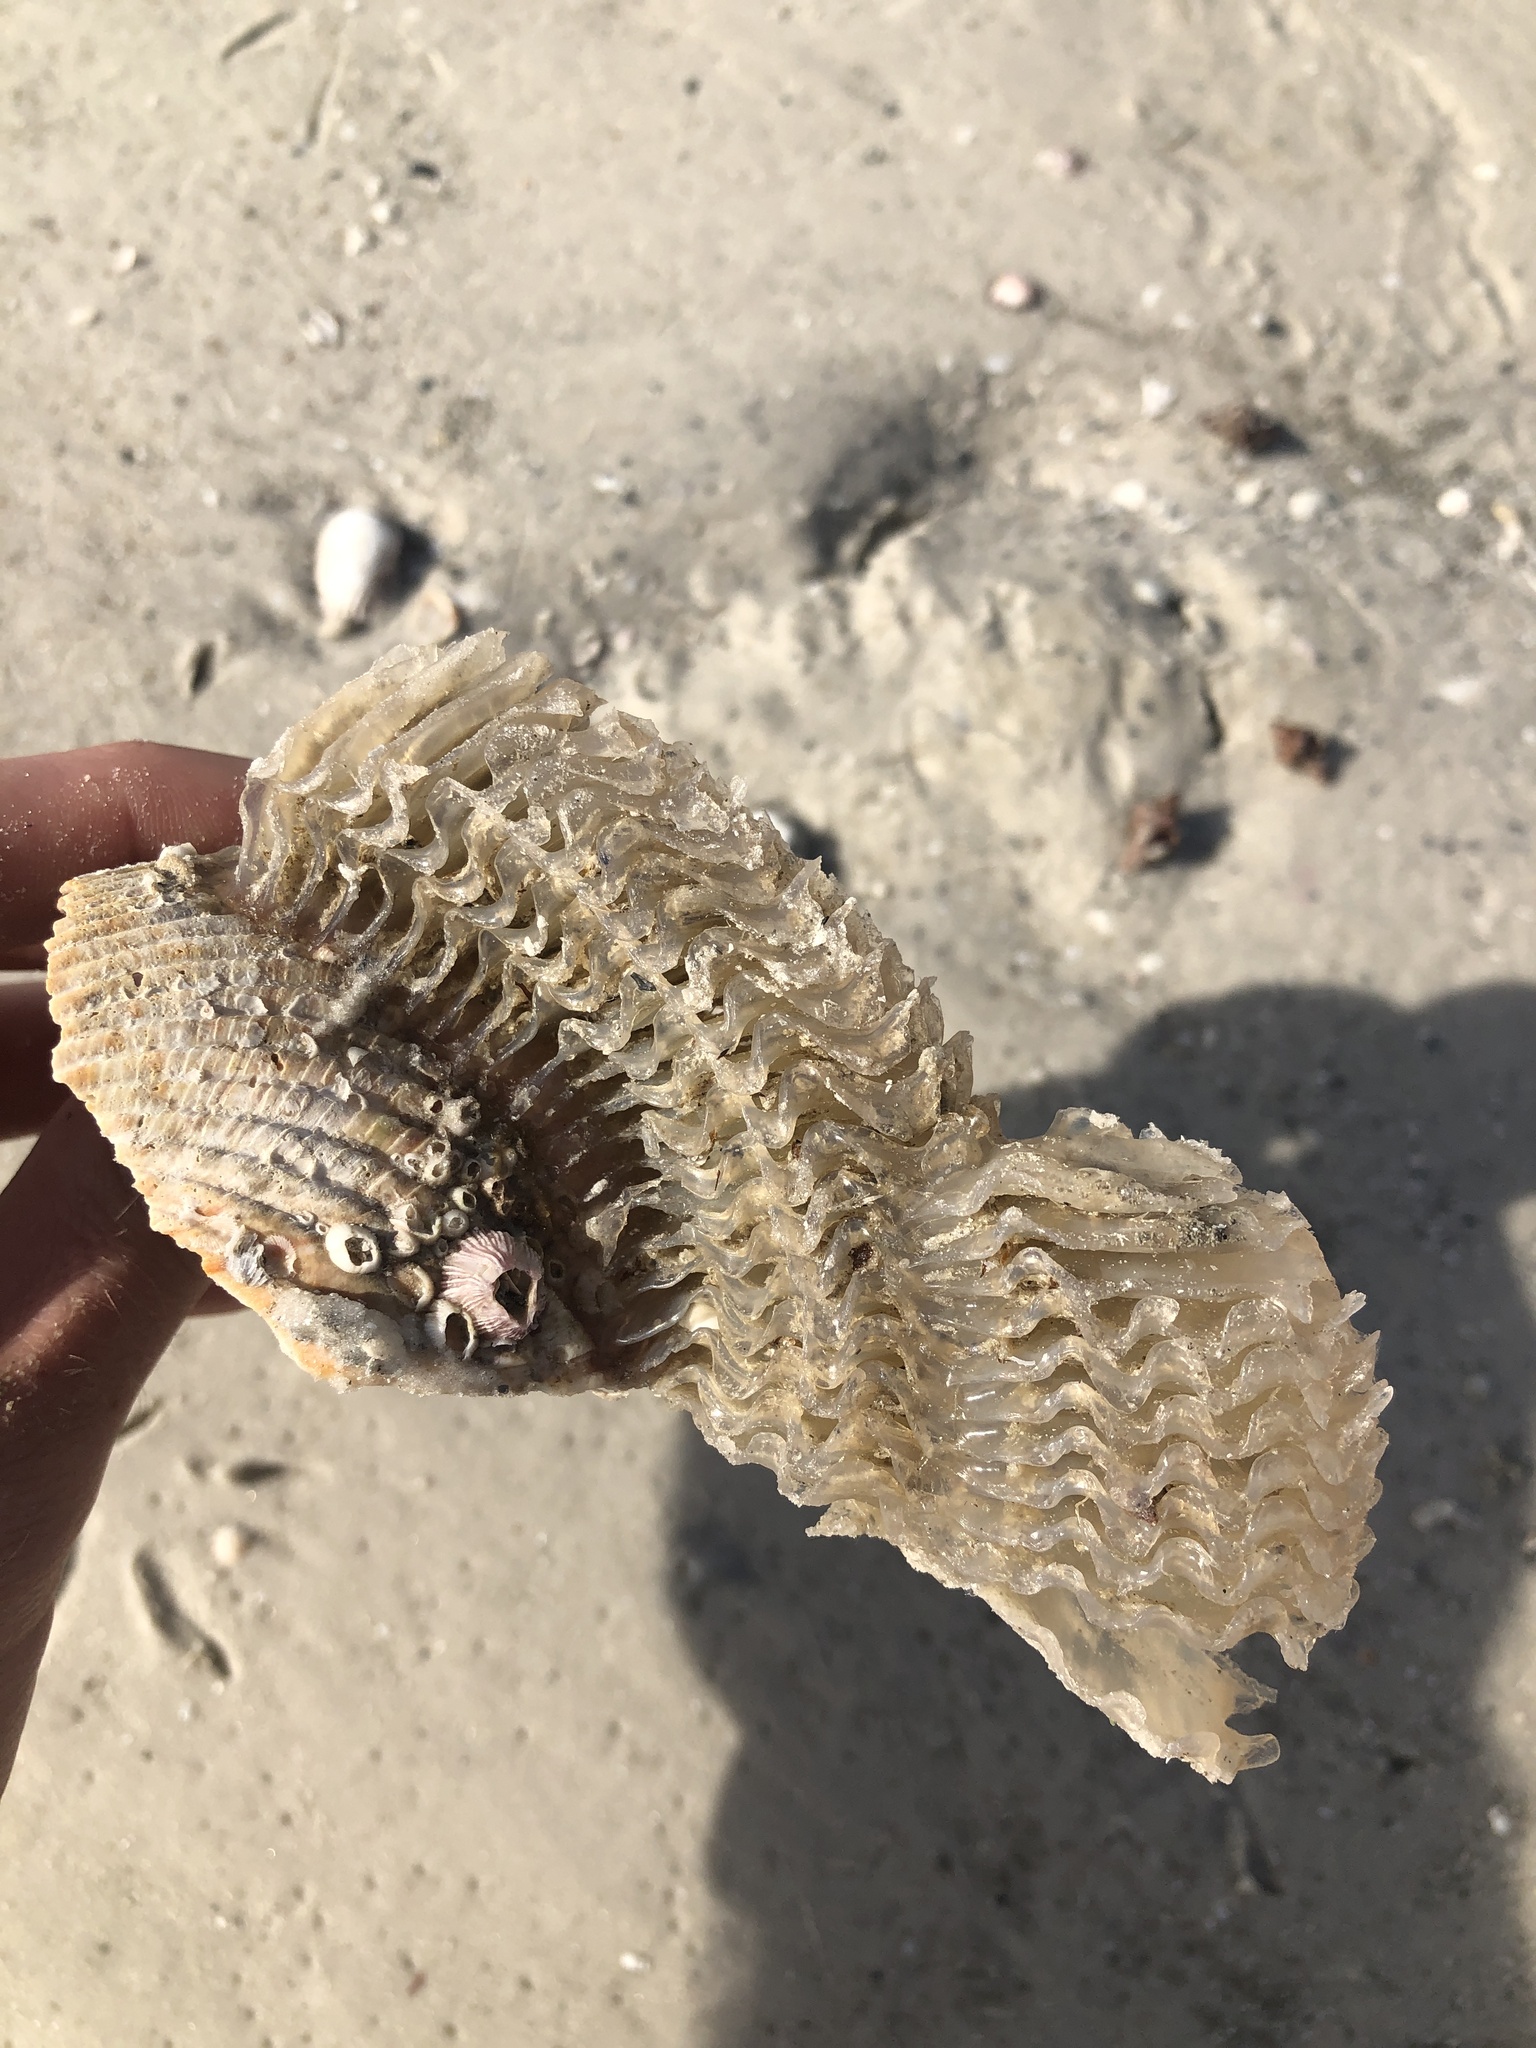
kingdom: Animalia
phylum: Mollusca
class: Gastropoda
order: Littorinimorpha
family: Ficidae
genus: Ficus
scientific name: Ficus papyratia
